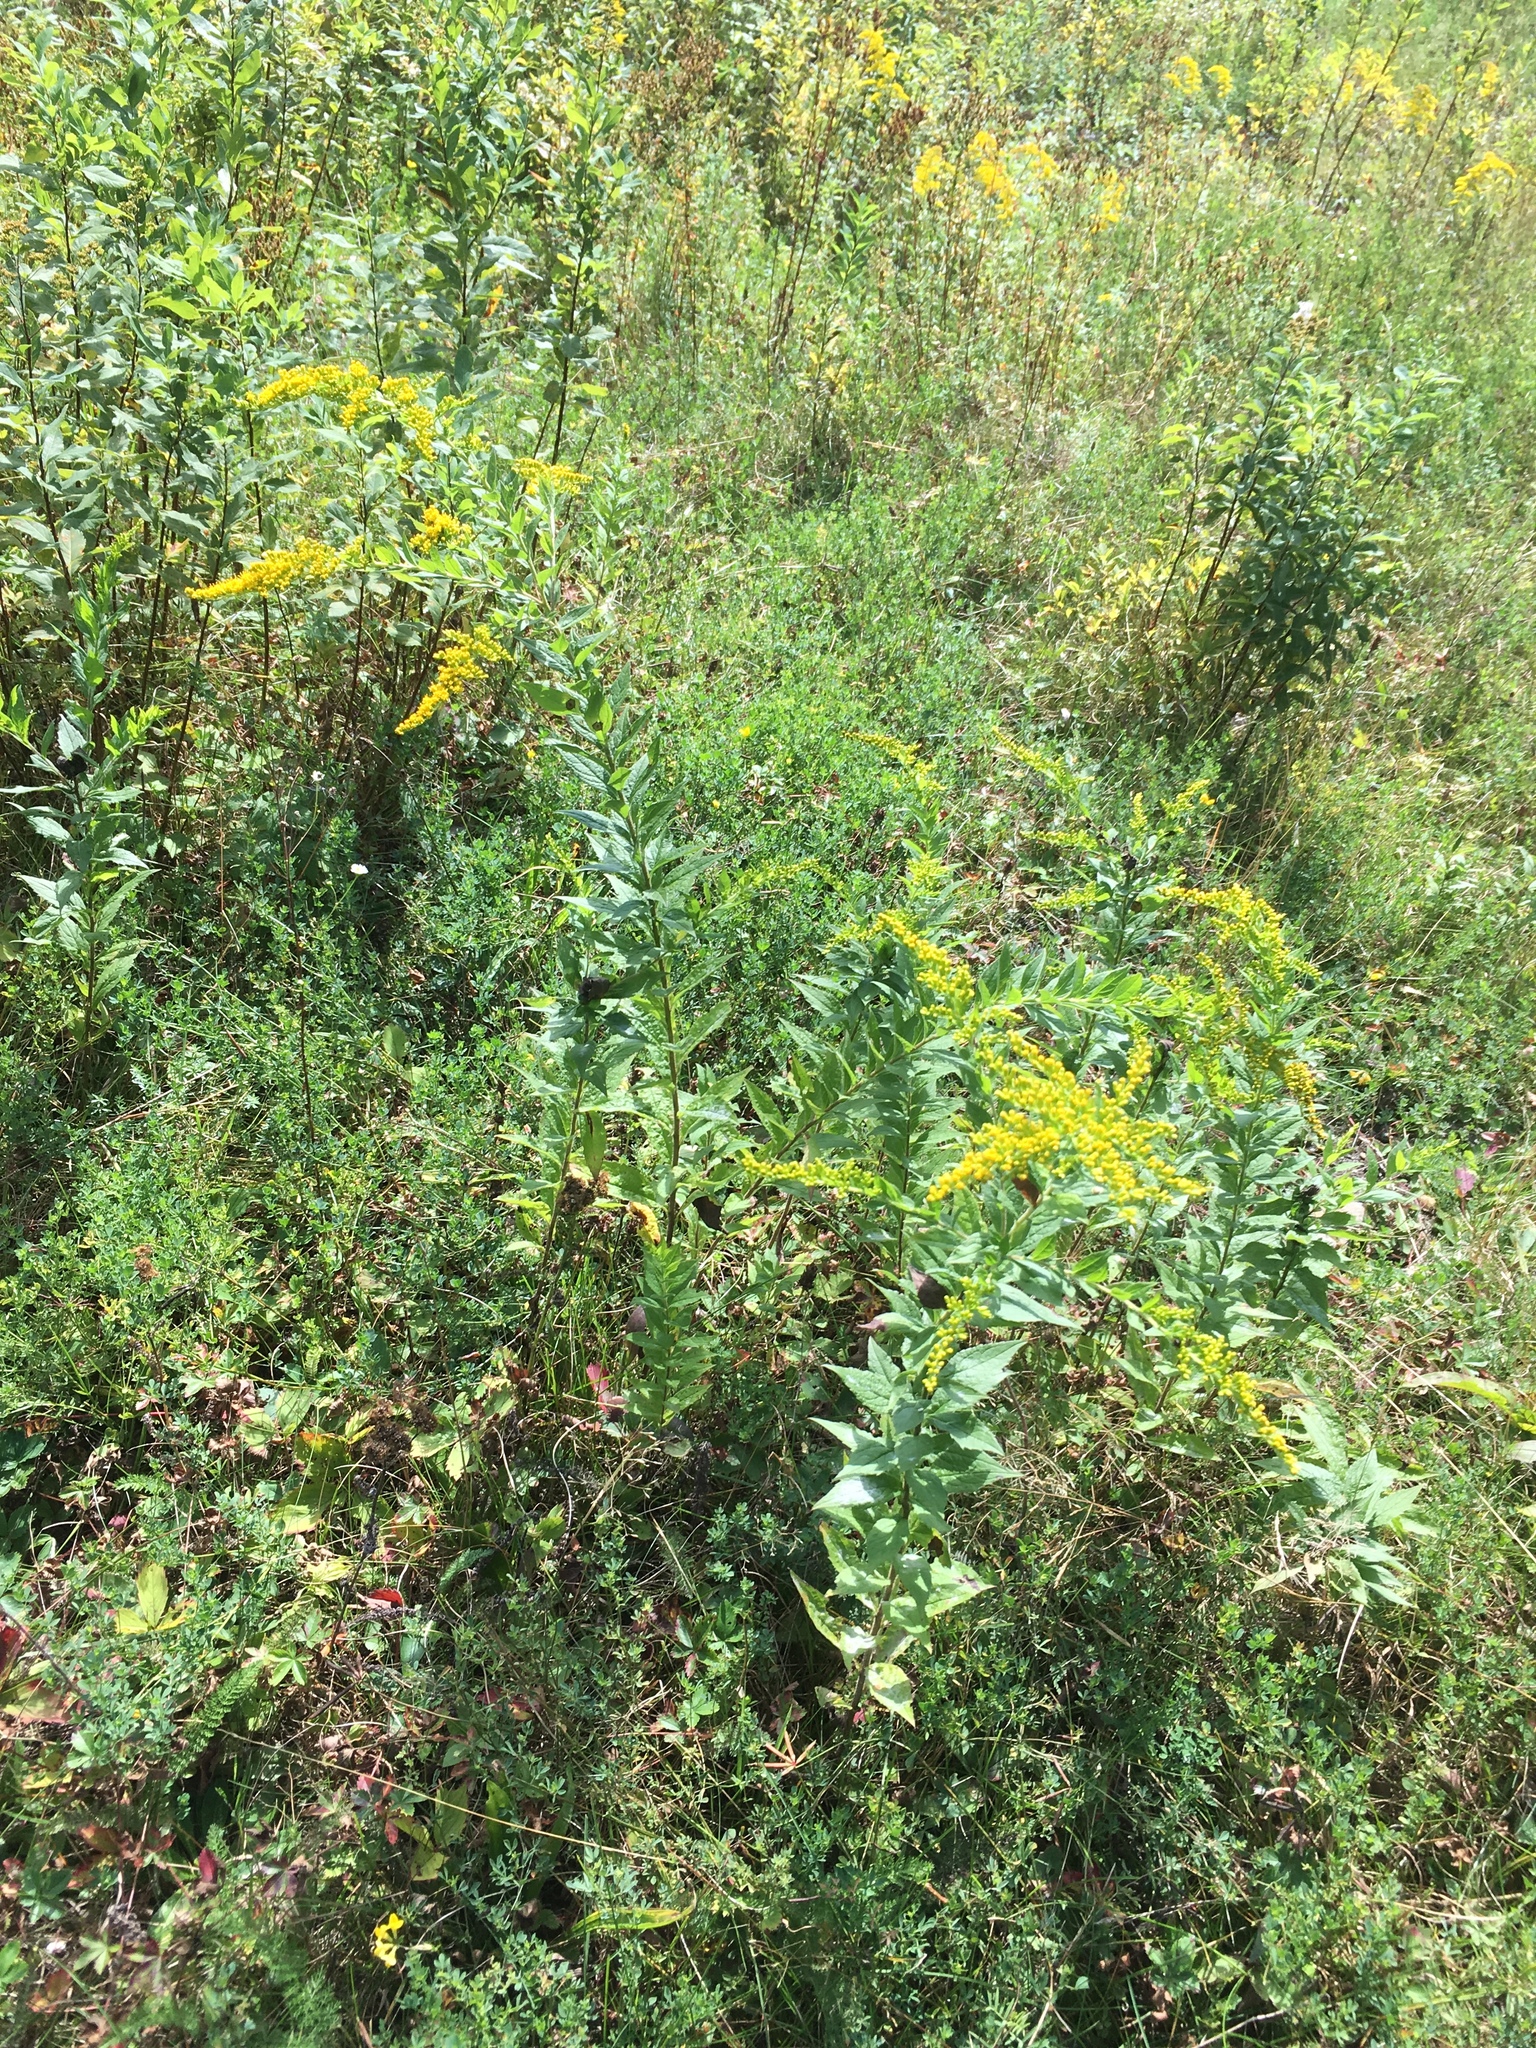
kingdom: Plantae
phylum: Tracheophyta
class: Magnoliopsida
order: Asterales
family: Asteraceae
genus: Solidago
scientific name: Solidago rugosa
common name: Rough-stemmed goldenrod
